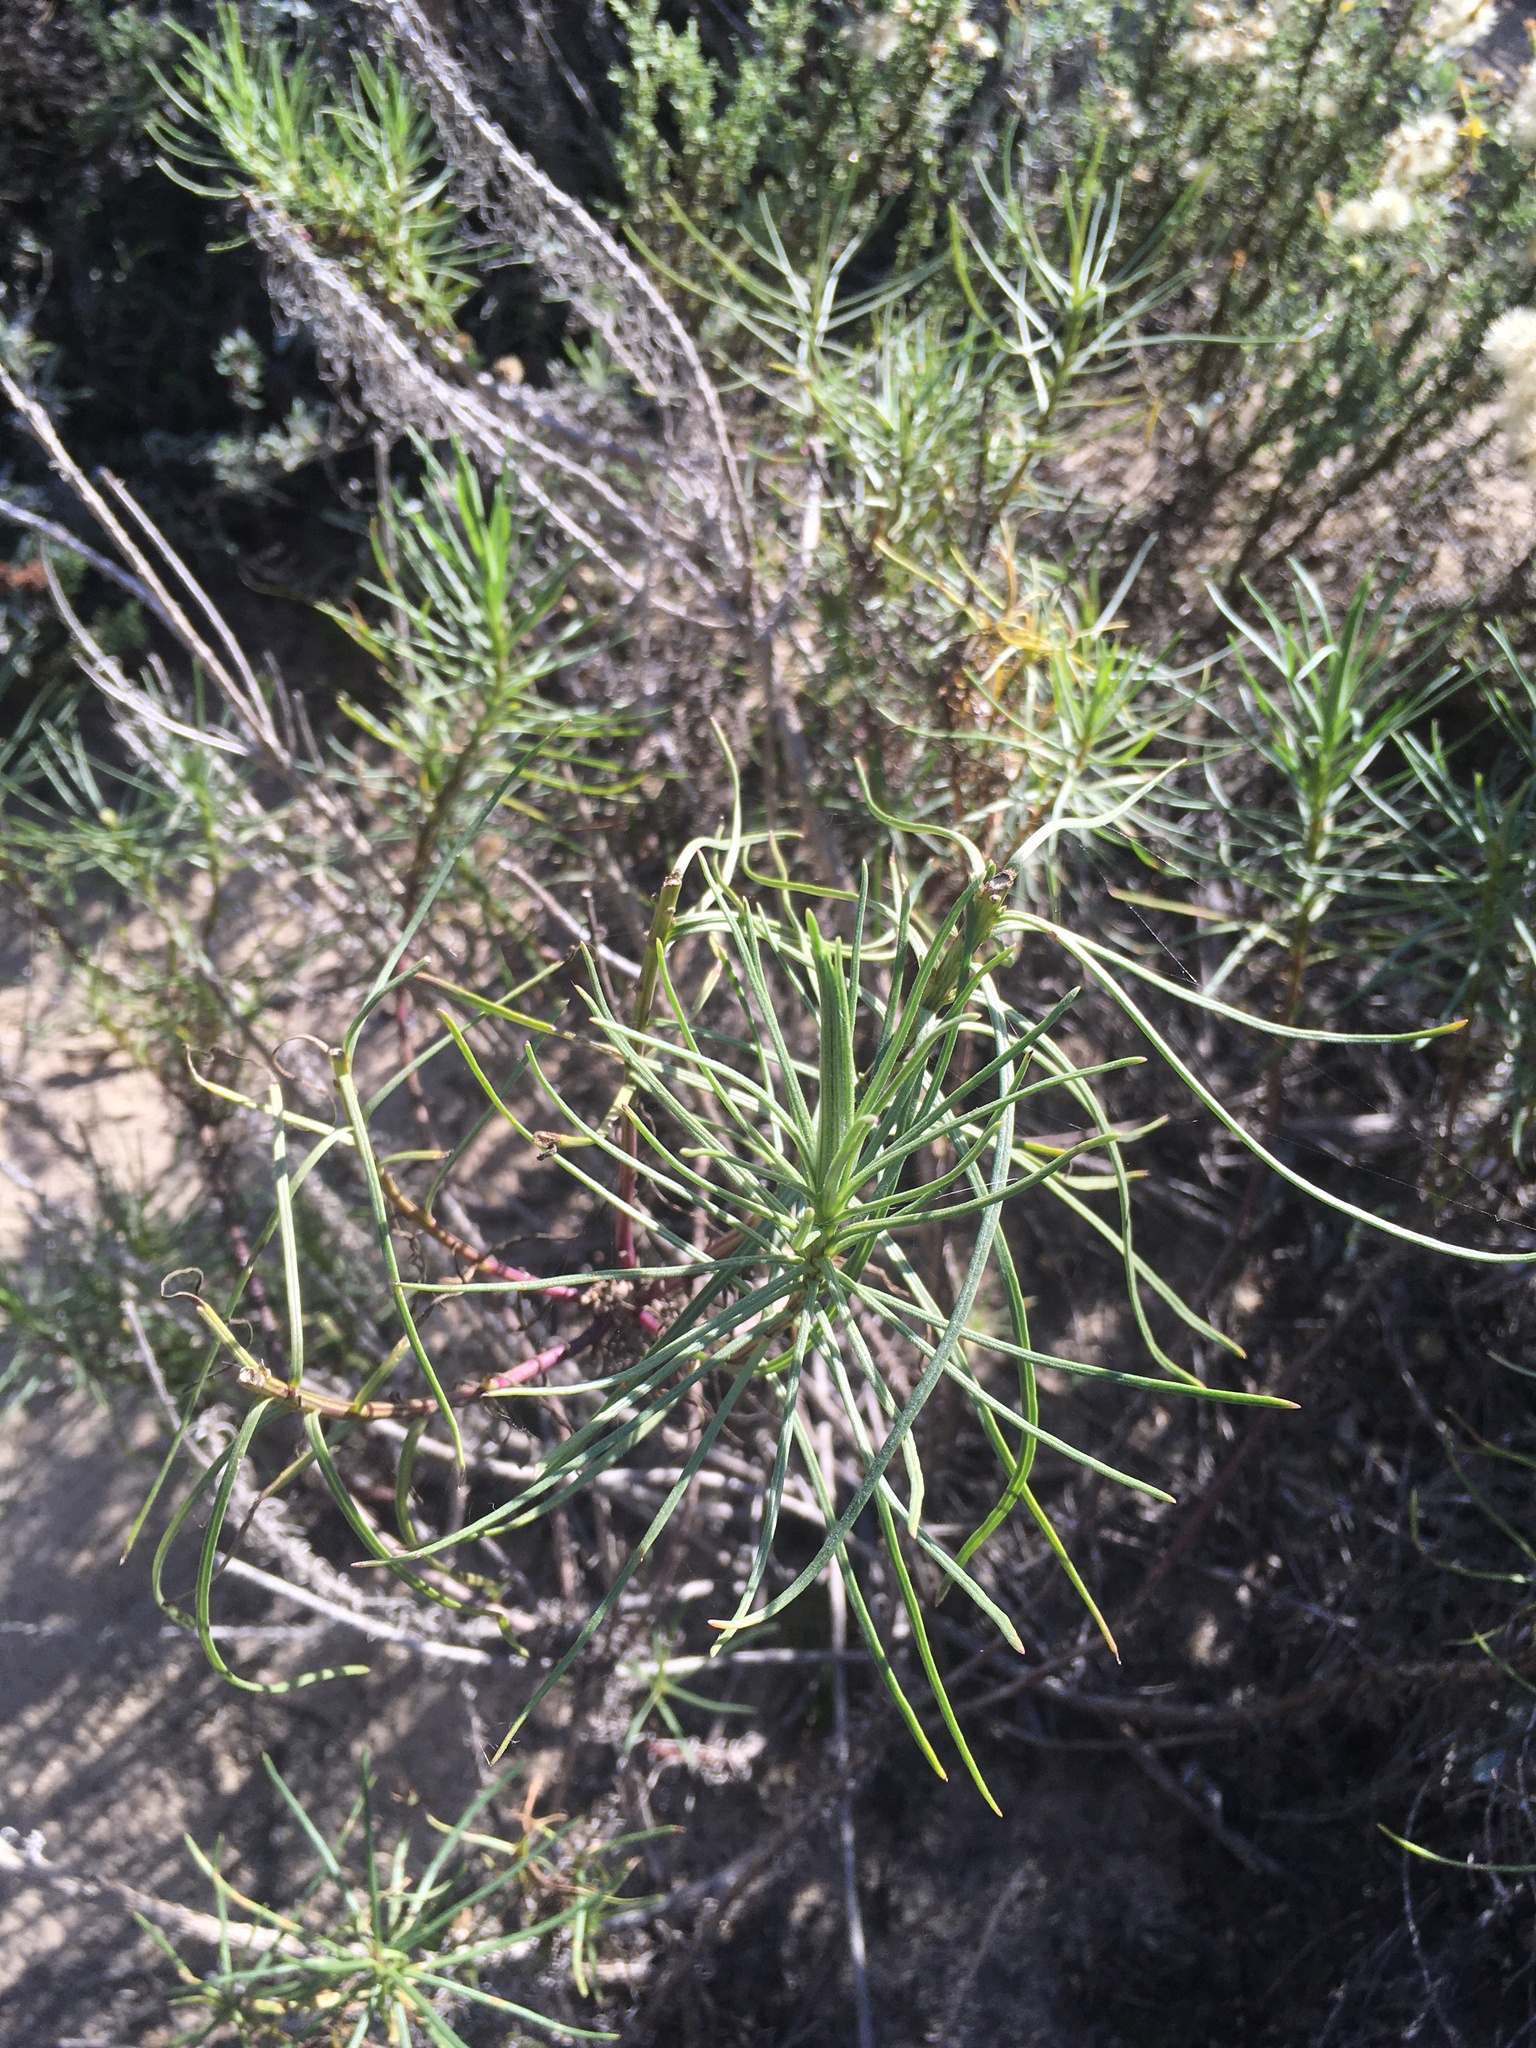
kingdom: Plantae
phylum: Tracheophyta
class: Magnoliopsida
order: Asterales
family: Asteraceae
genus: Senecio
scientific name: Senecio blochmaniae
